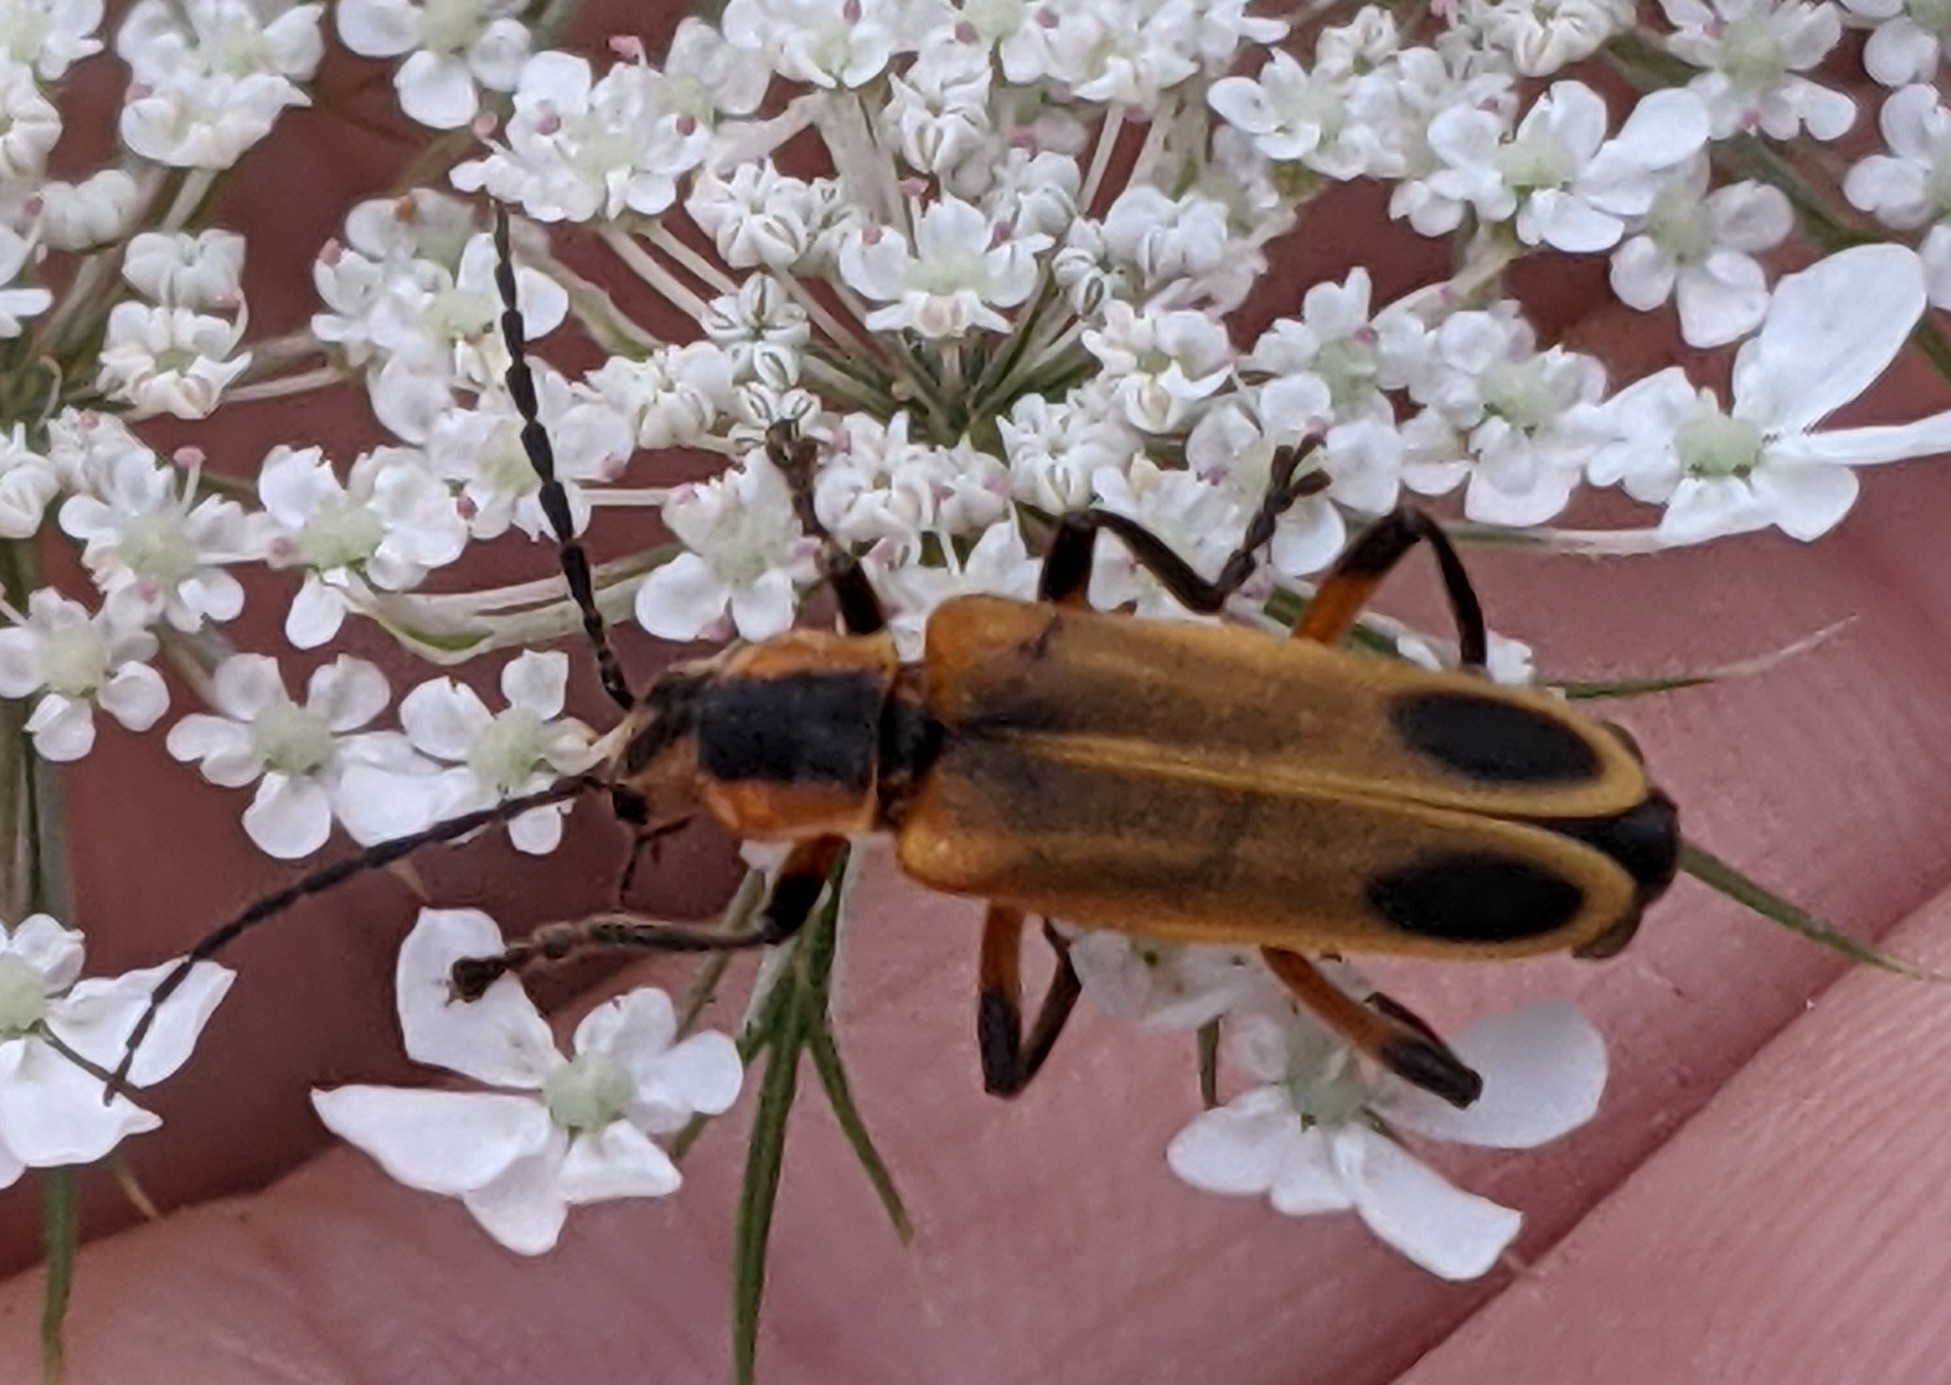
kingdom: Animalia
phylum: Arthropoda
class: Insecta
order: Coleoptera
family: Cantharidae
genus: Chauliognathus
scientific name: Chauliognathus marginatus
